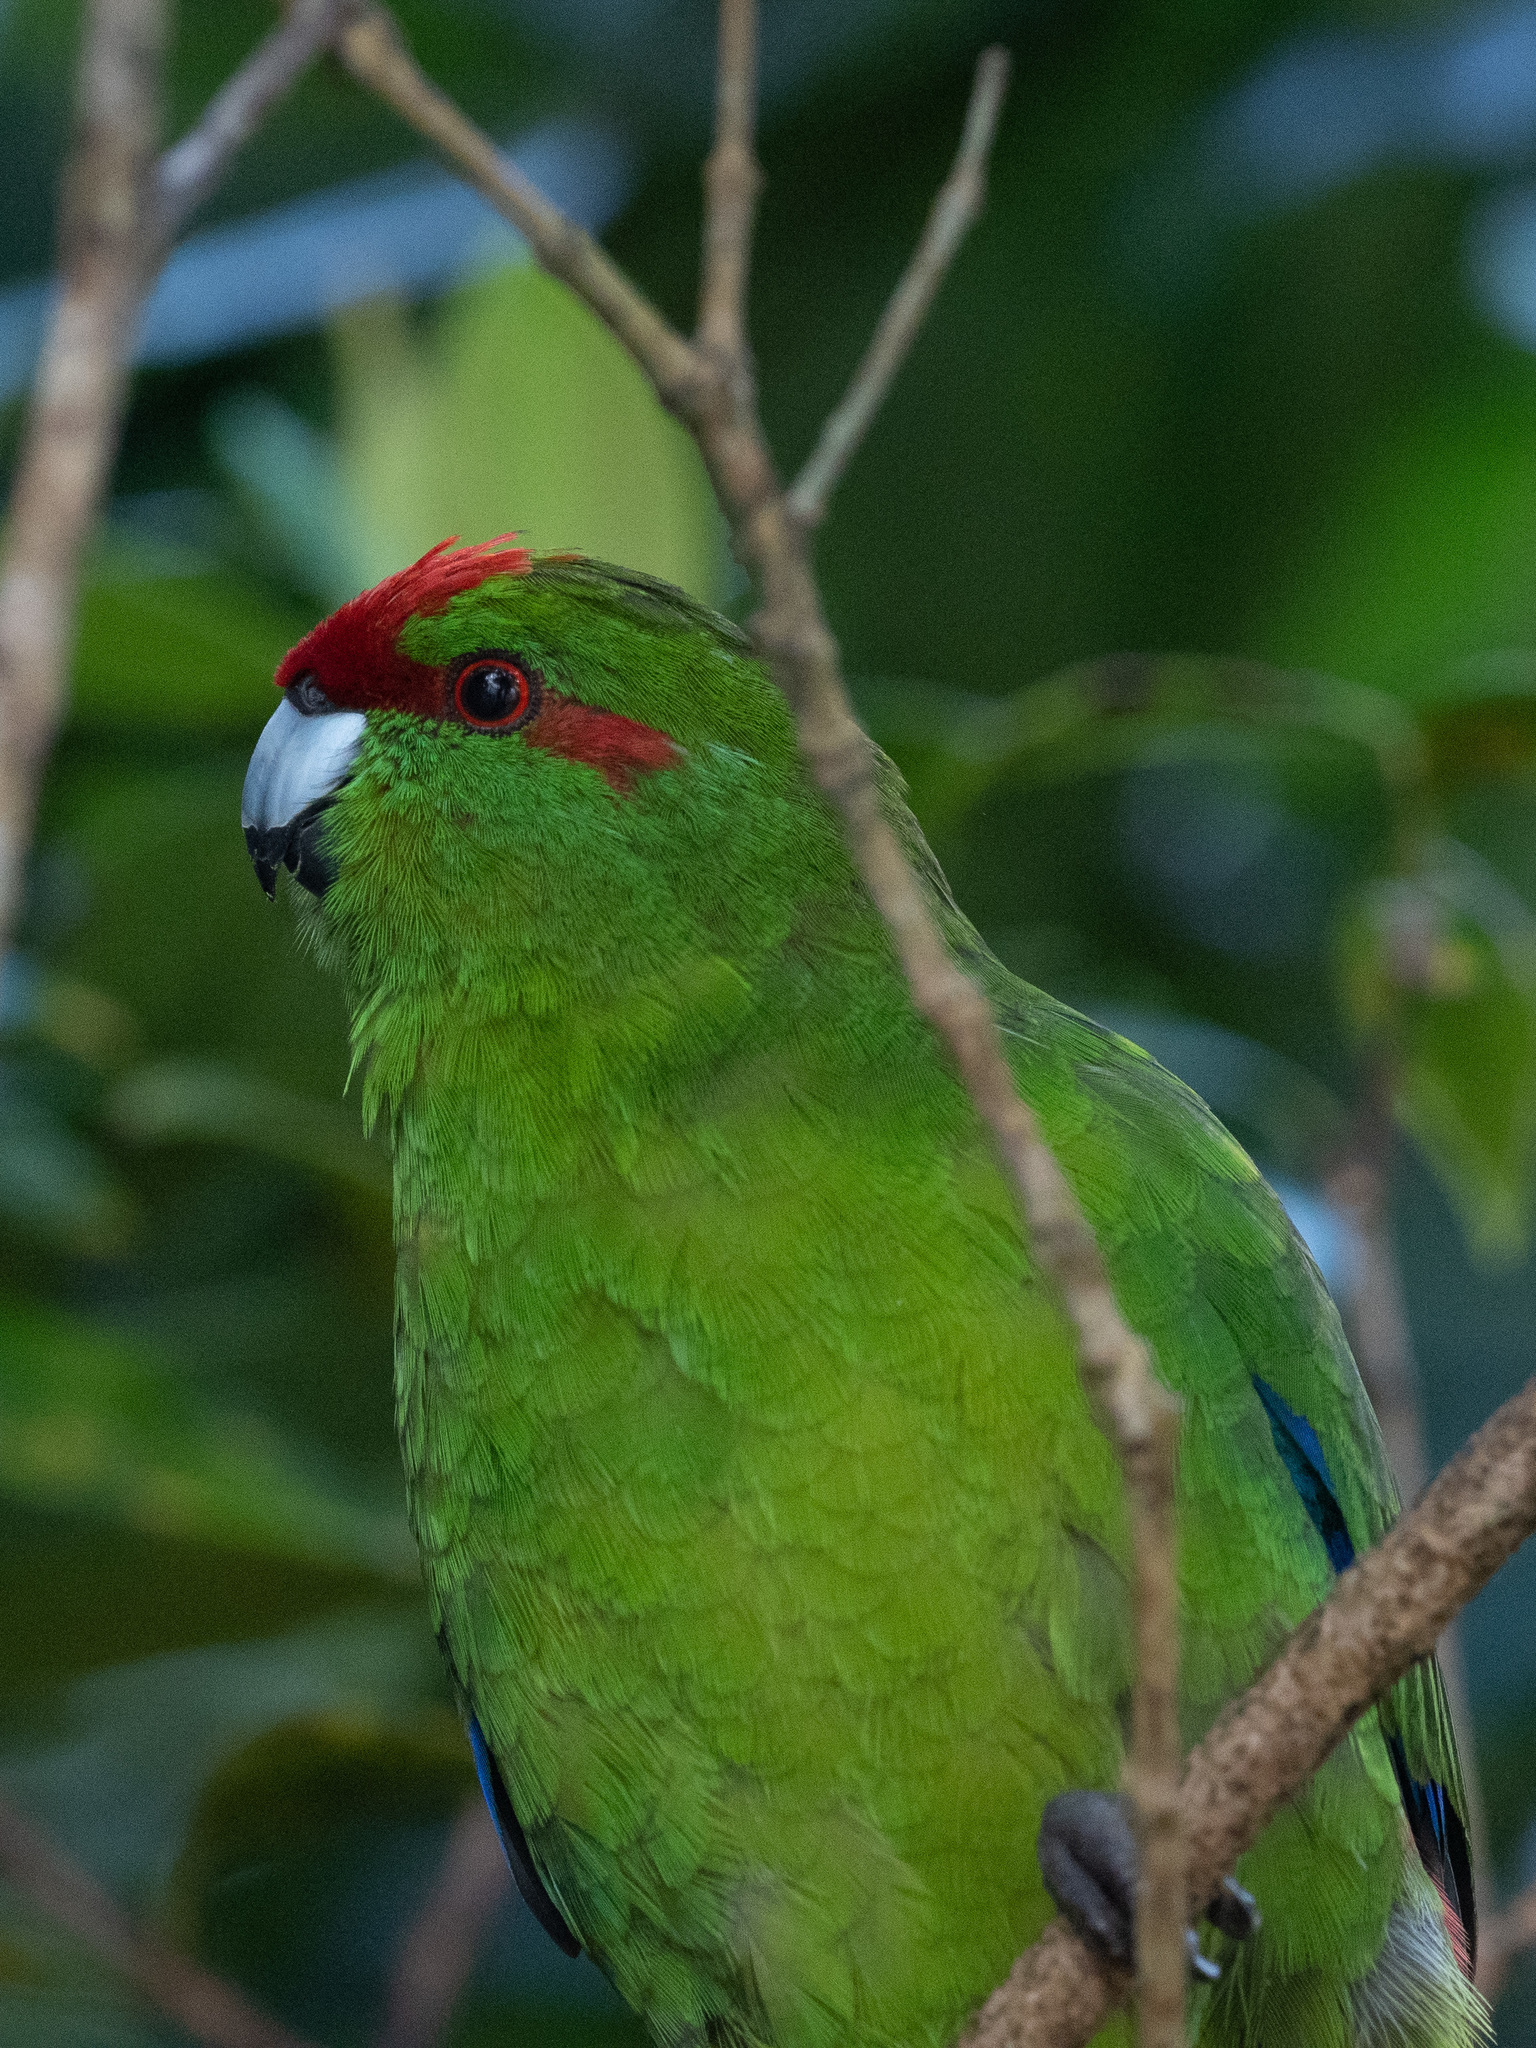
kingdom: Animalia
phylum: Chordata
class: Aves
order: Psittaciformes
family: Psittacidae
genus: Cyanoramphus
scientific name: Cyanoramphus novaezelandiae
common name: Red-fronted parakeet
